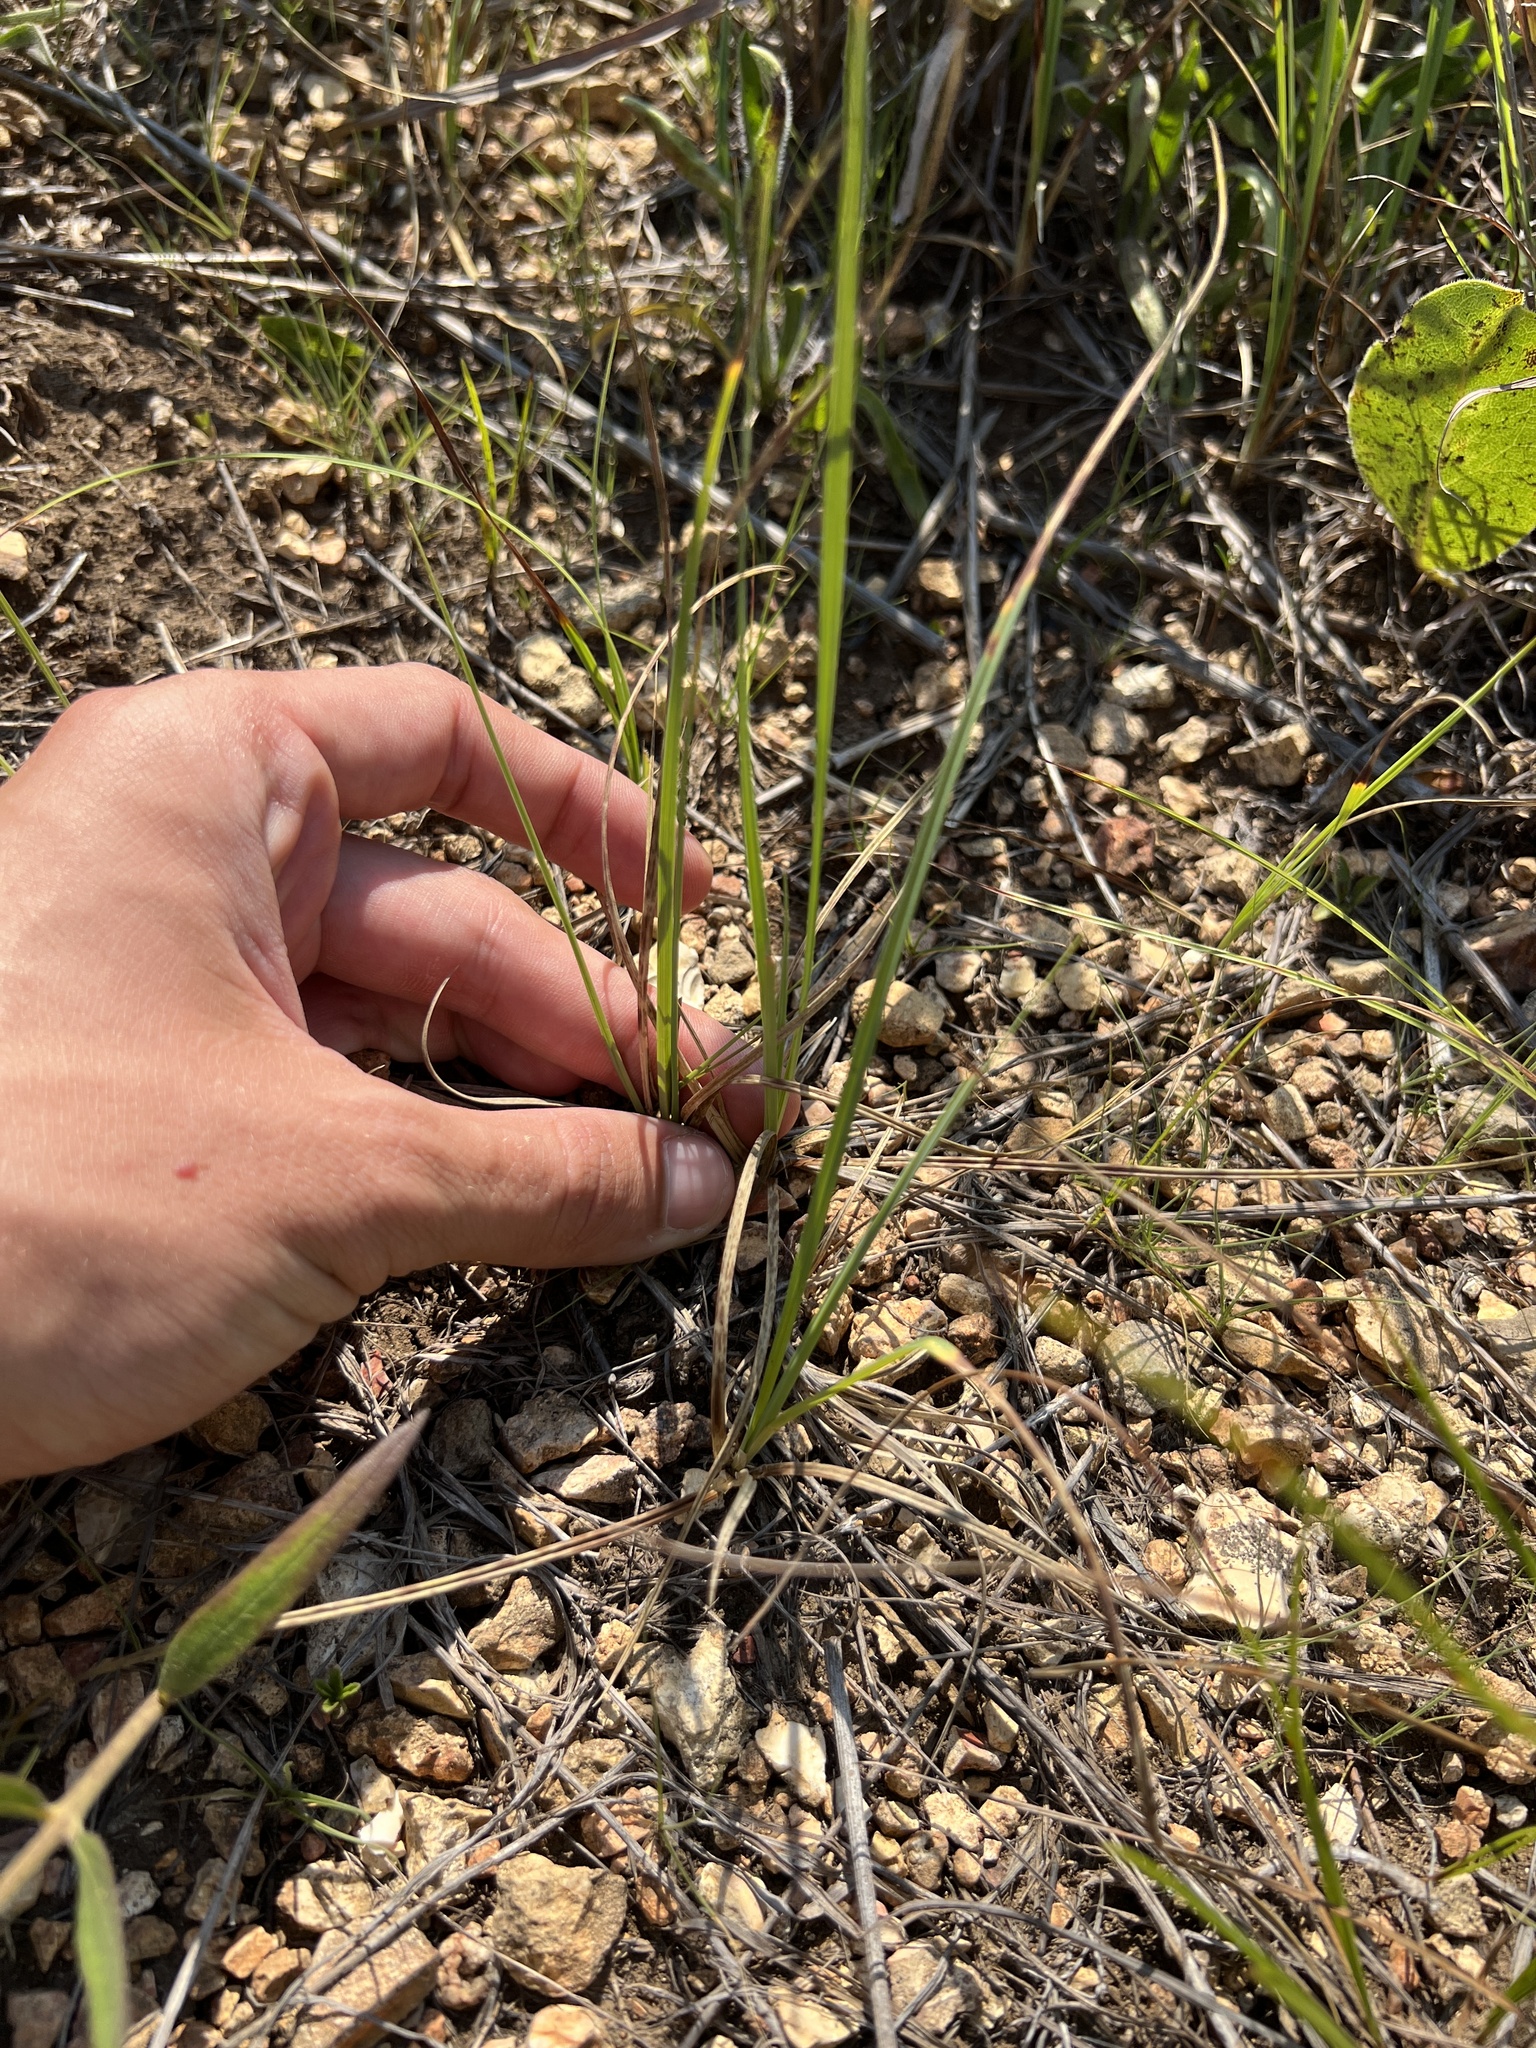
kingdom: Plantae
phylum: Tracheophyta
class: Liliopsida
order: Poales
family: Cyperaceae
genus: Carex
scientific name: Carex meadii
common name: Mead's sedge
